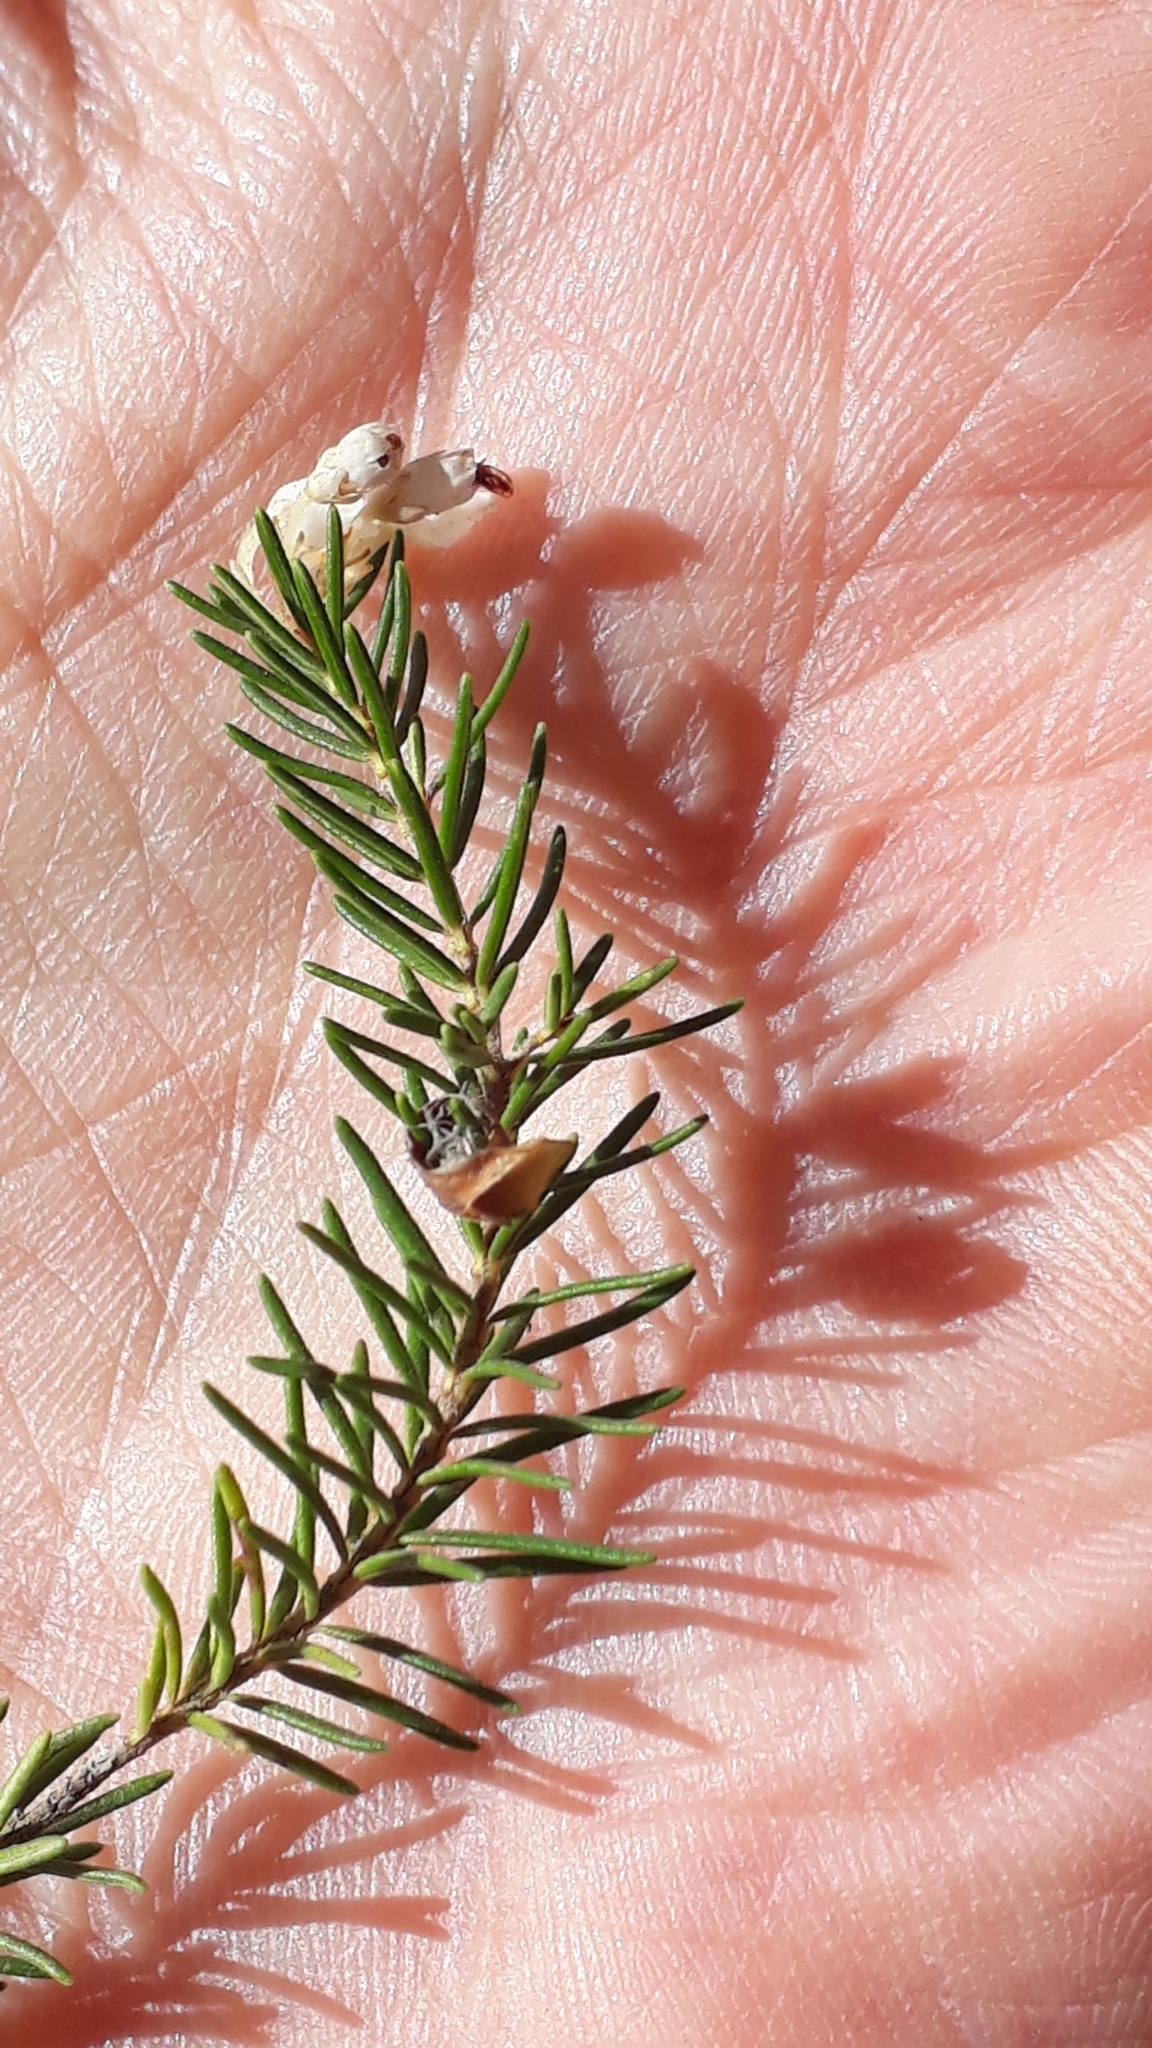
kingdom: Plantae
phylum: Tracheophyta
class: Magnoliopsida
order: Ericales
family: Ericaceae
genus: Erica
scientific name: Erica canariensis
